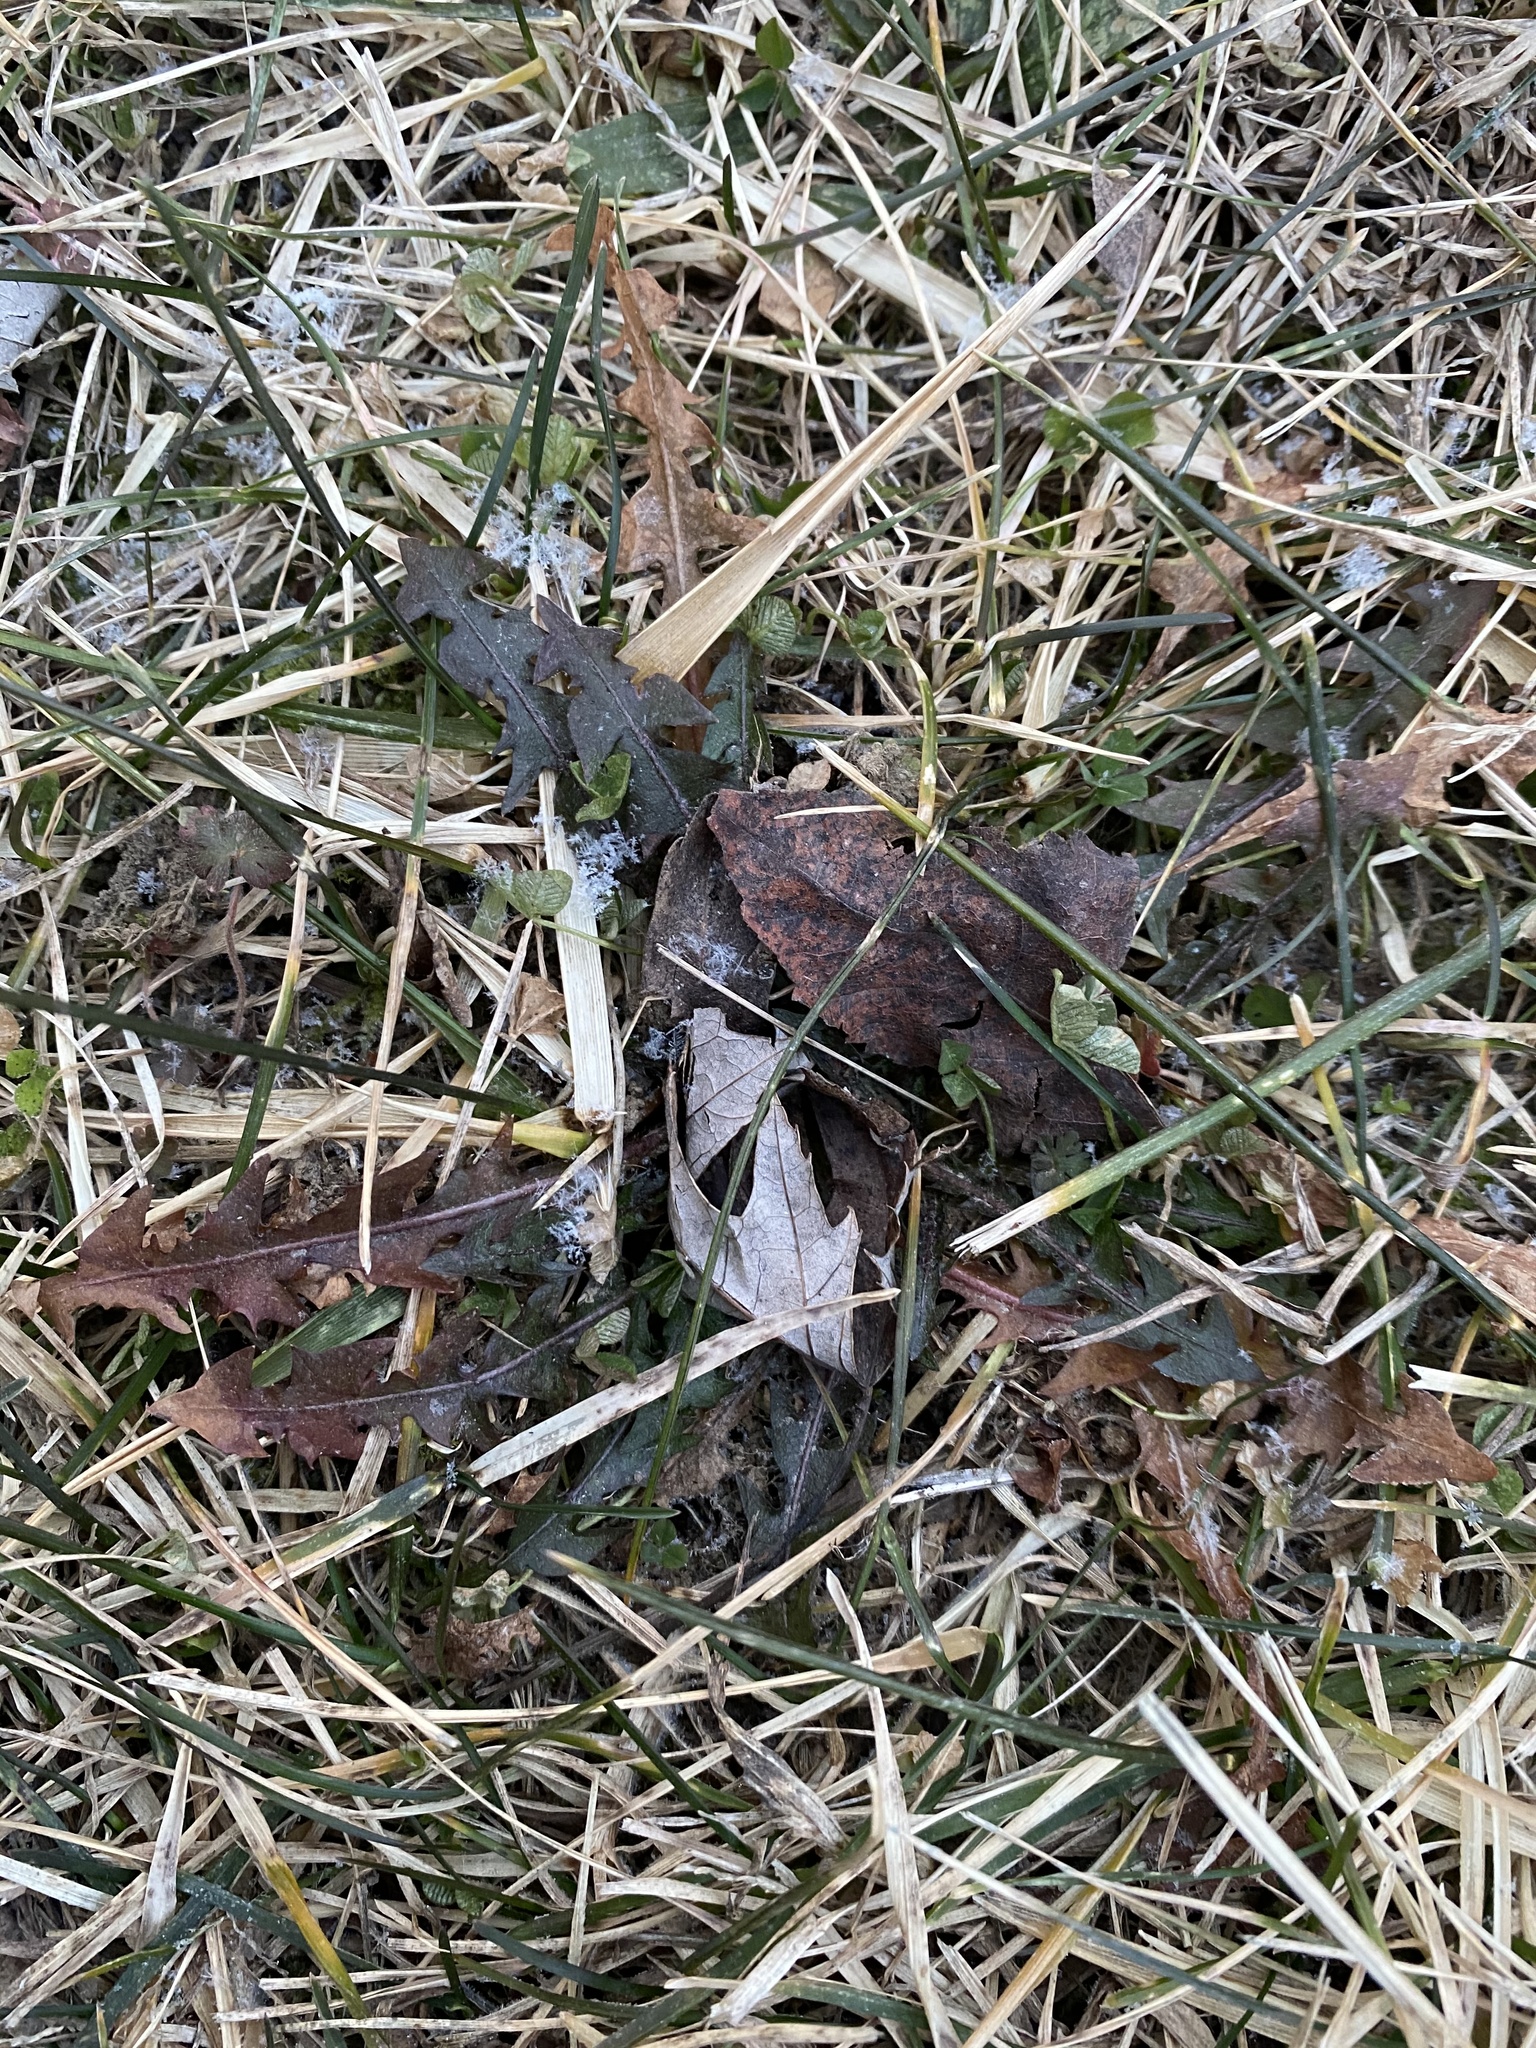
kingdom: Plantae
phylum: Tracheophyta
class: Magnoliopsida
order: Asterales
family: Asteraceae
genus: Taraxacum
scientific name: Taraxacum officinale
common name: Common dandelion
